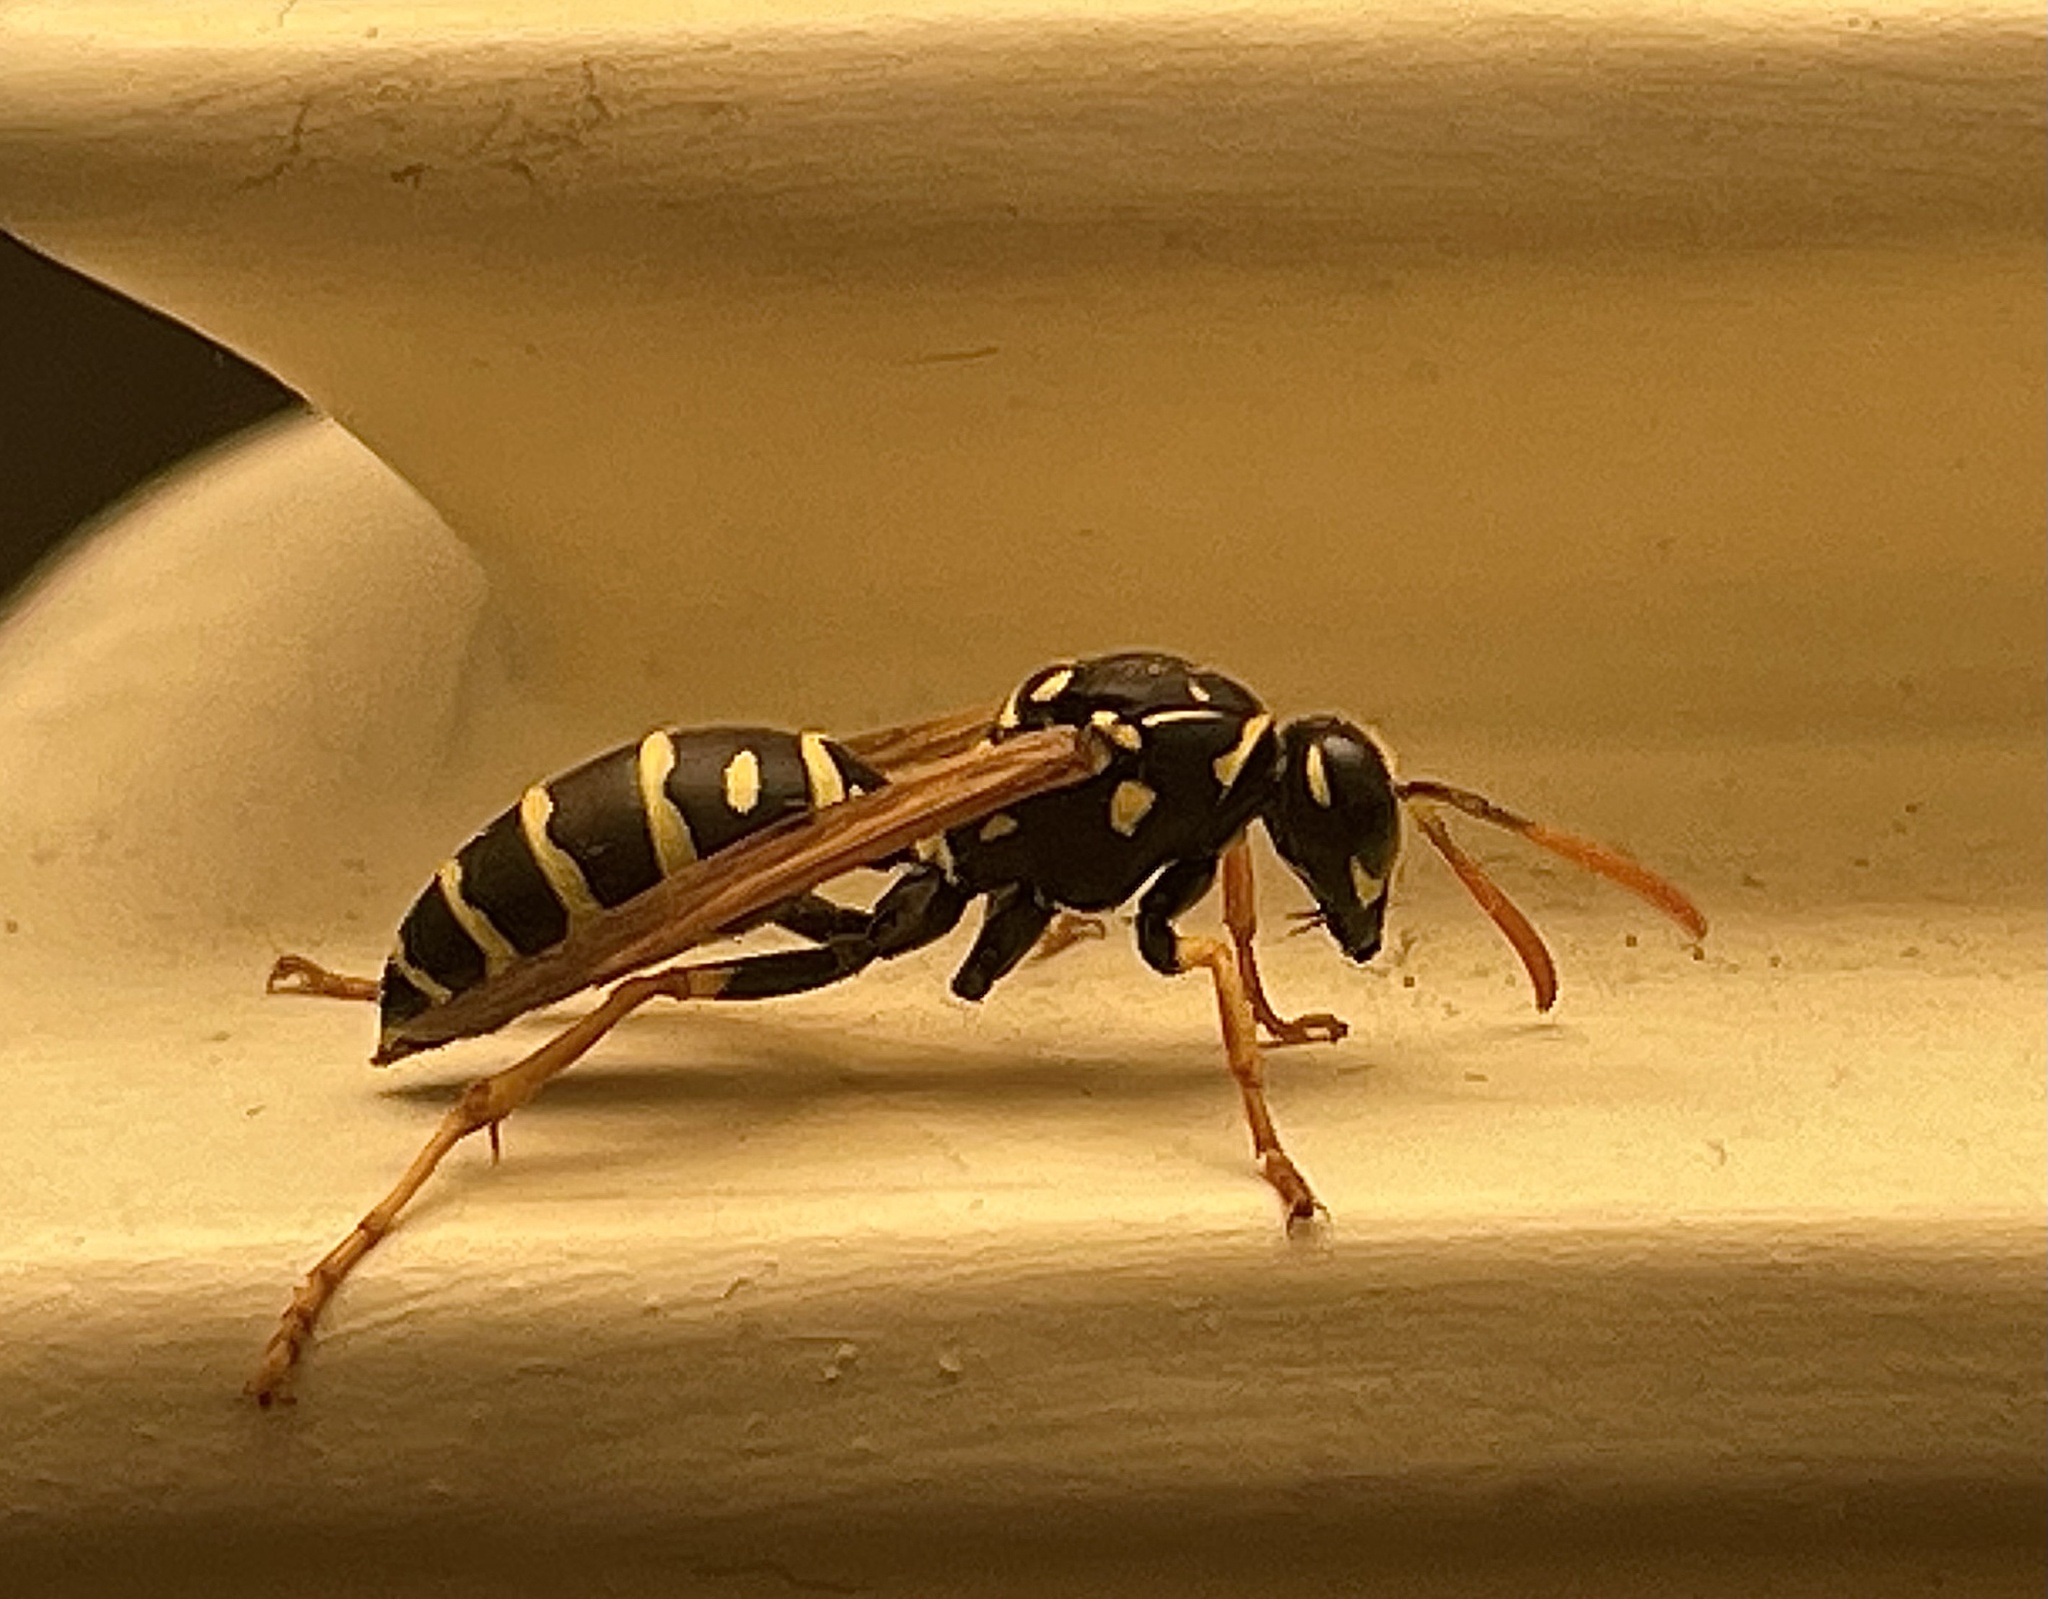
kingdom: Animalia
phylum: Arthropoda
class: Insecta
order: Hymenoptera
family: Eumenidae
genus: Polistes
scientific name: Polistes dominula
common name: Paper wasp
